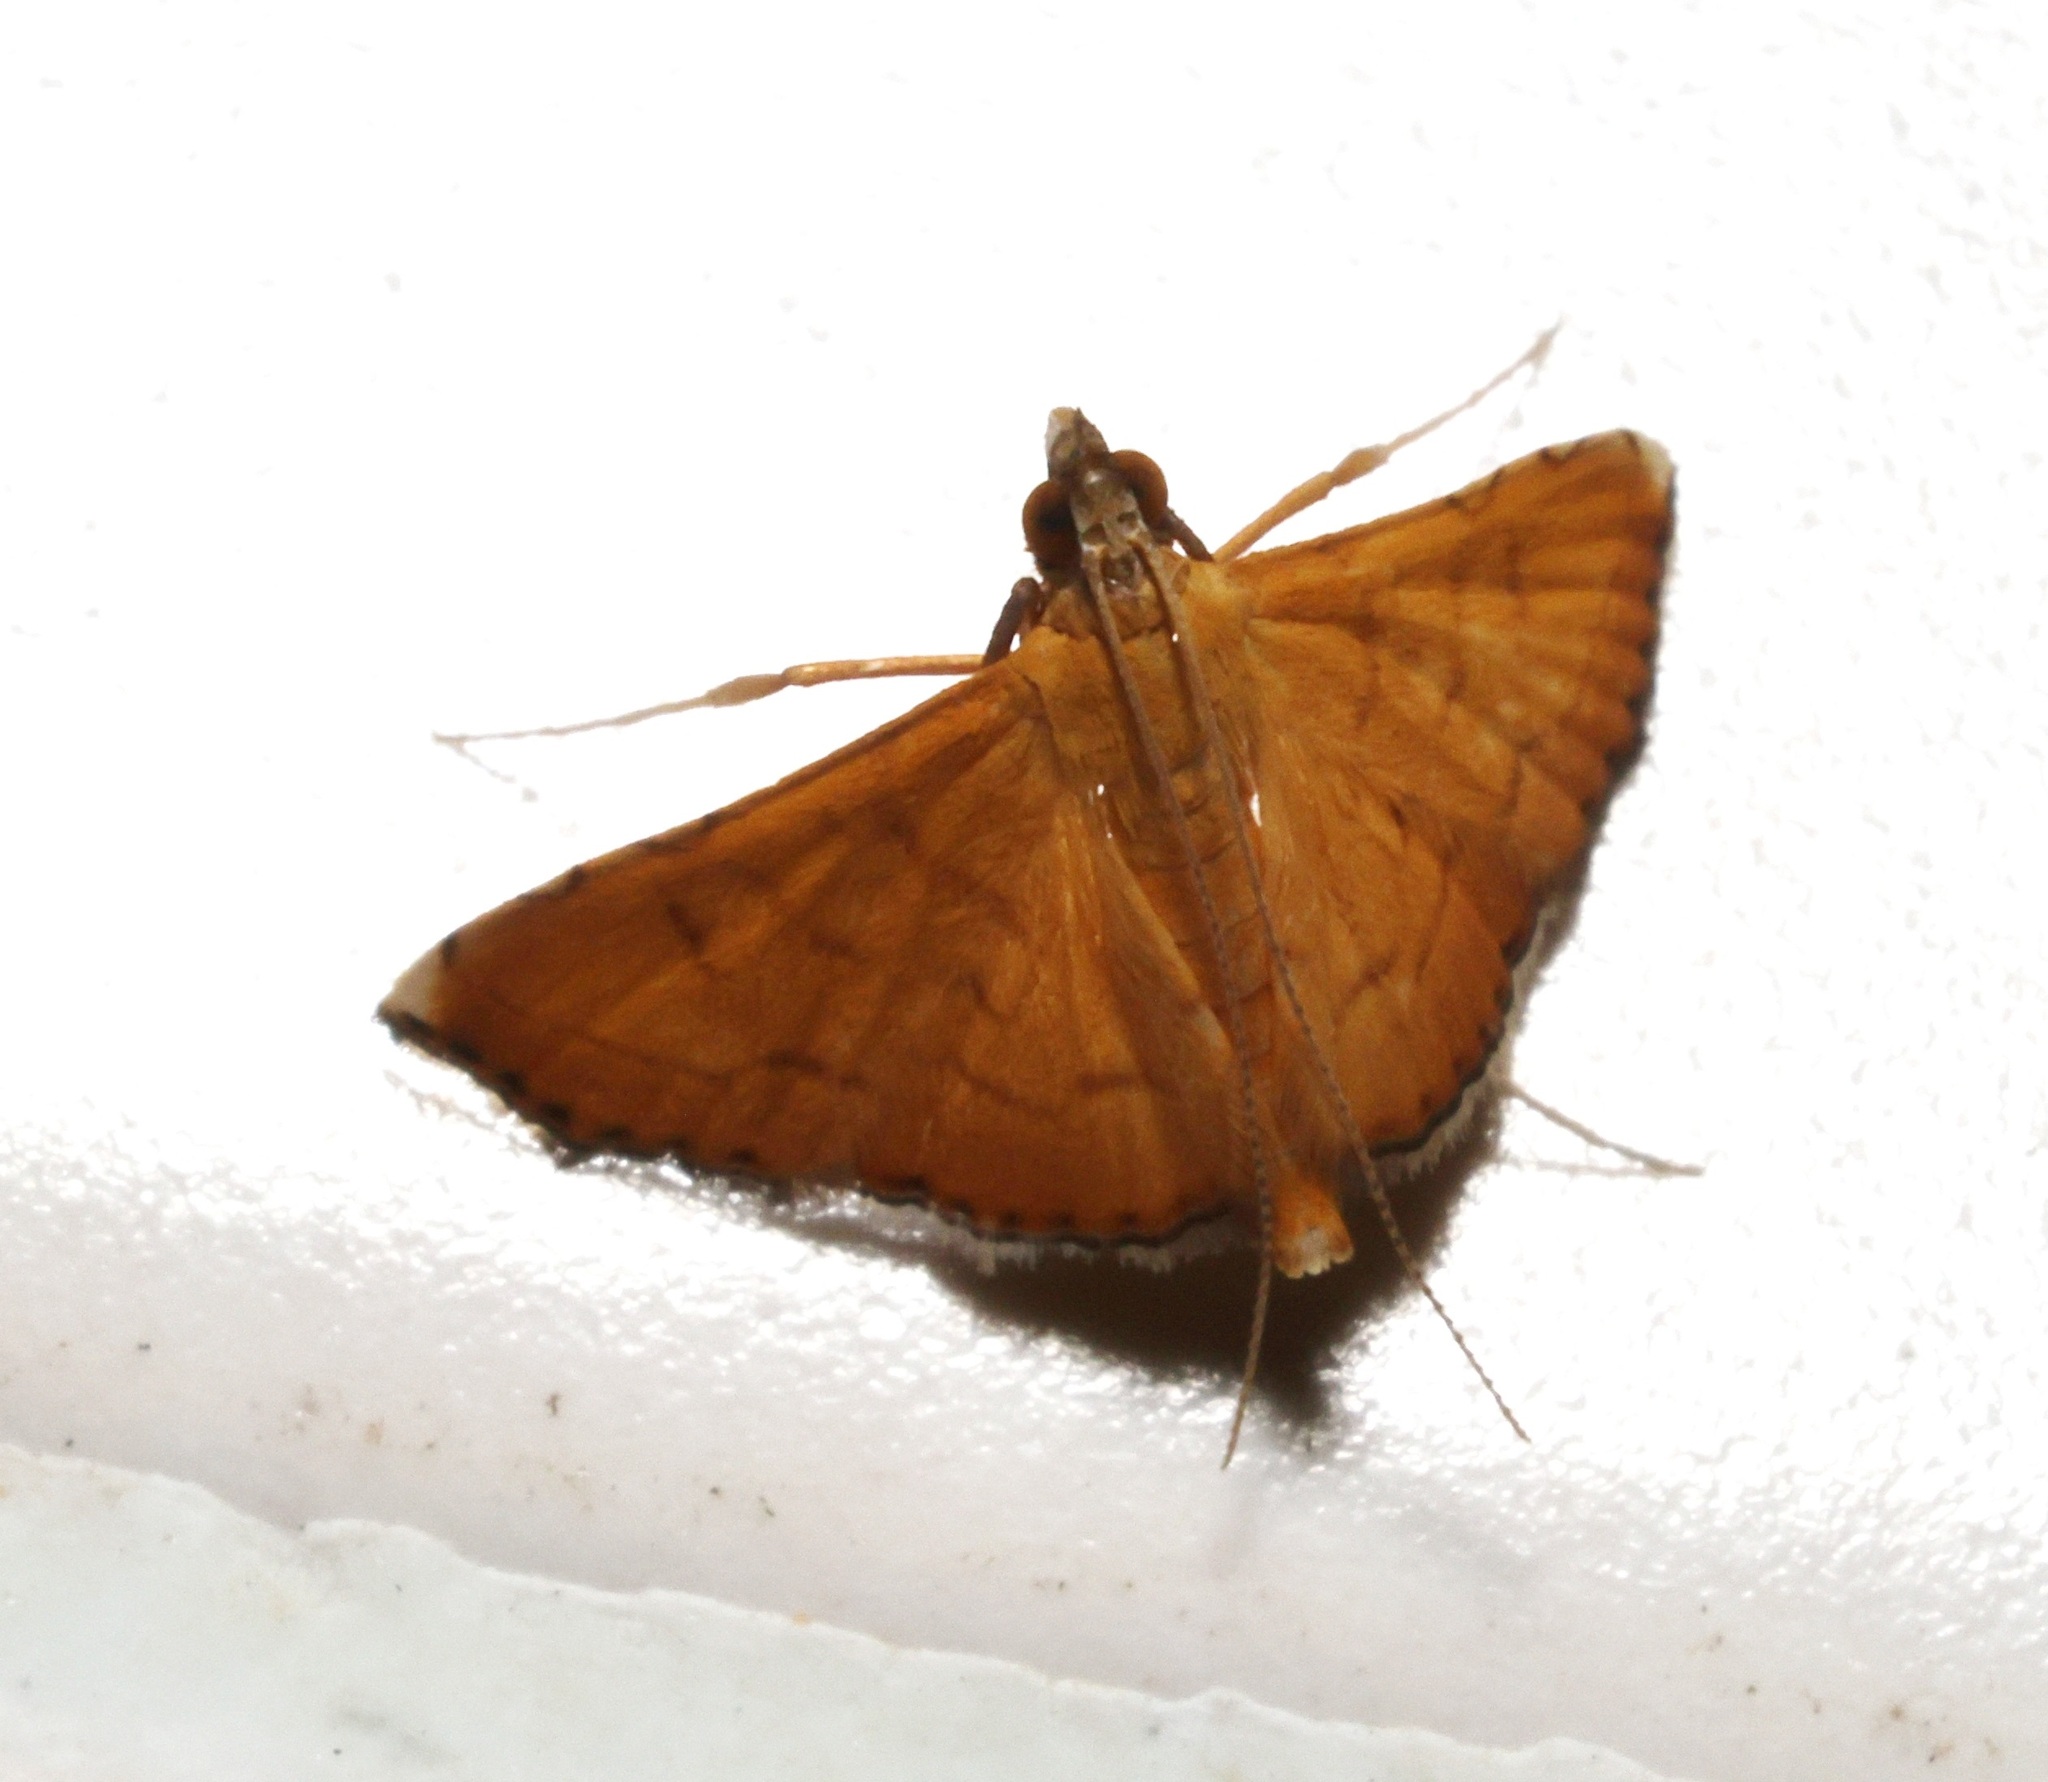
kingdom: Animalia
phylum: Arthropoda
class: Insecta
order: Lepidoptera
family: Crambidae
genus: Mabra
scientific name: Mabra nigriscripta
